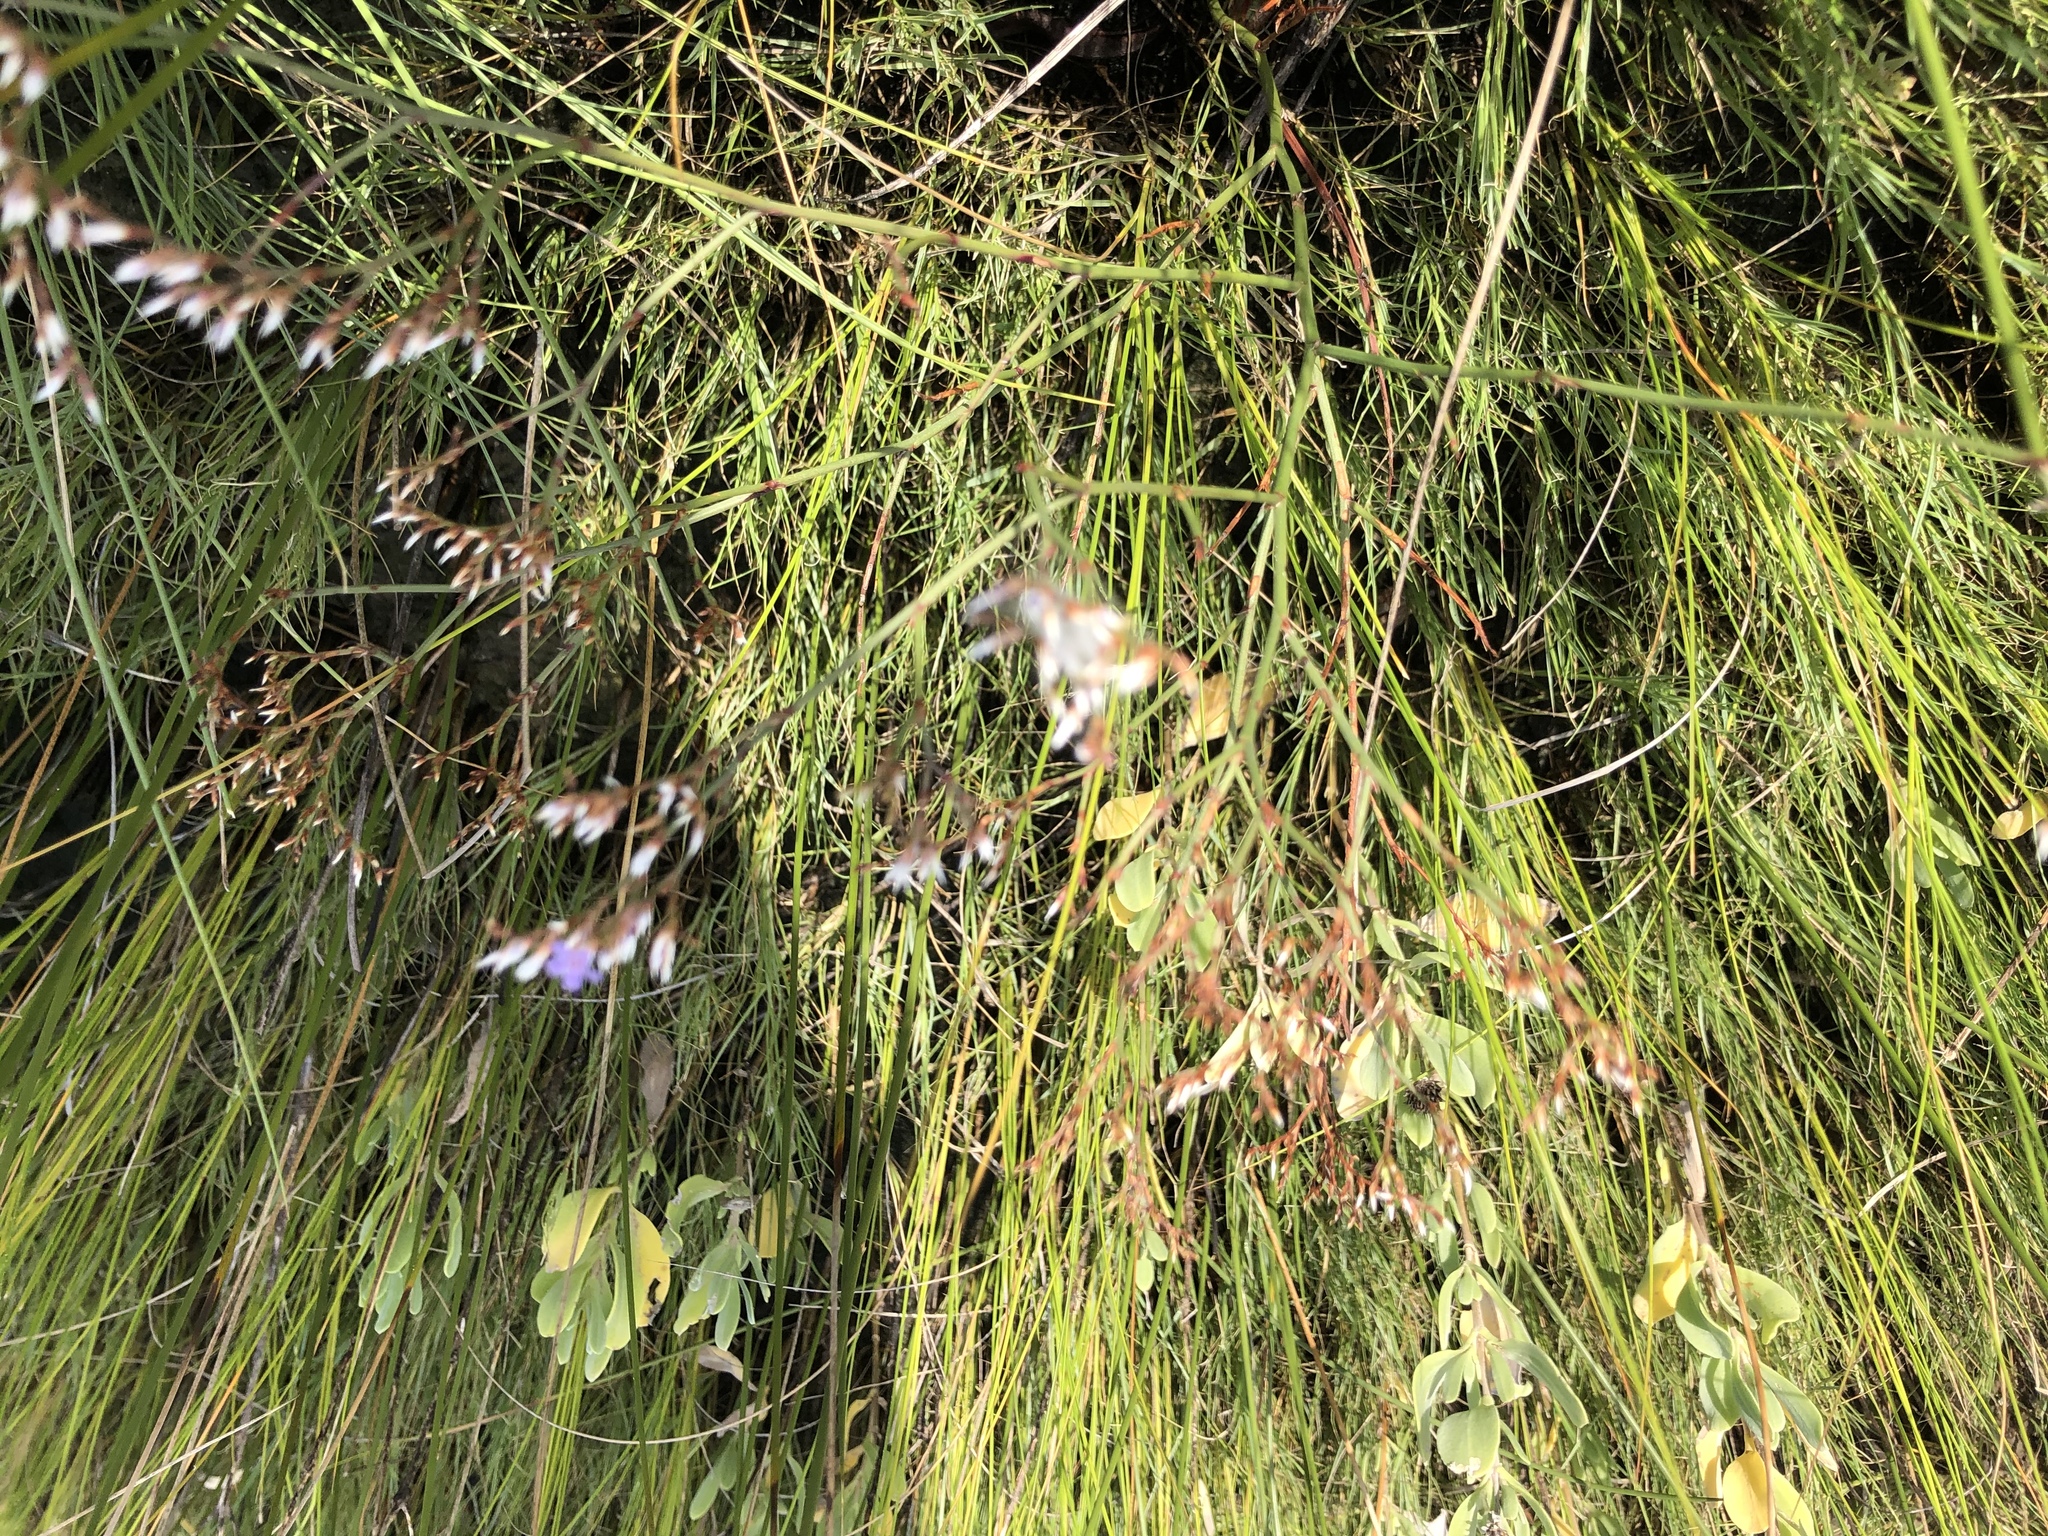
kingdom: Plantae
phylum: Tracheophyta
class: Magnoliopsida
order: Caryophyllales
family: Plumbaginaceae
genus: Limonium
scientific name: Limonium carolinianum
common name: Carolina sea lavender
